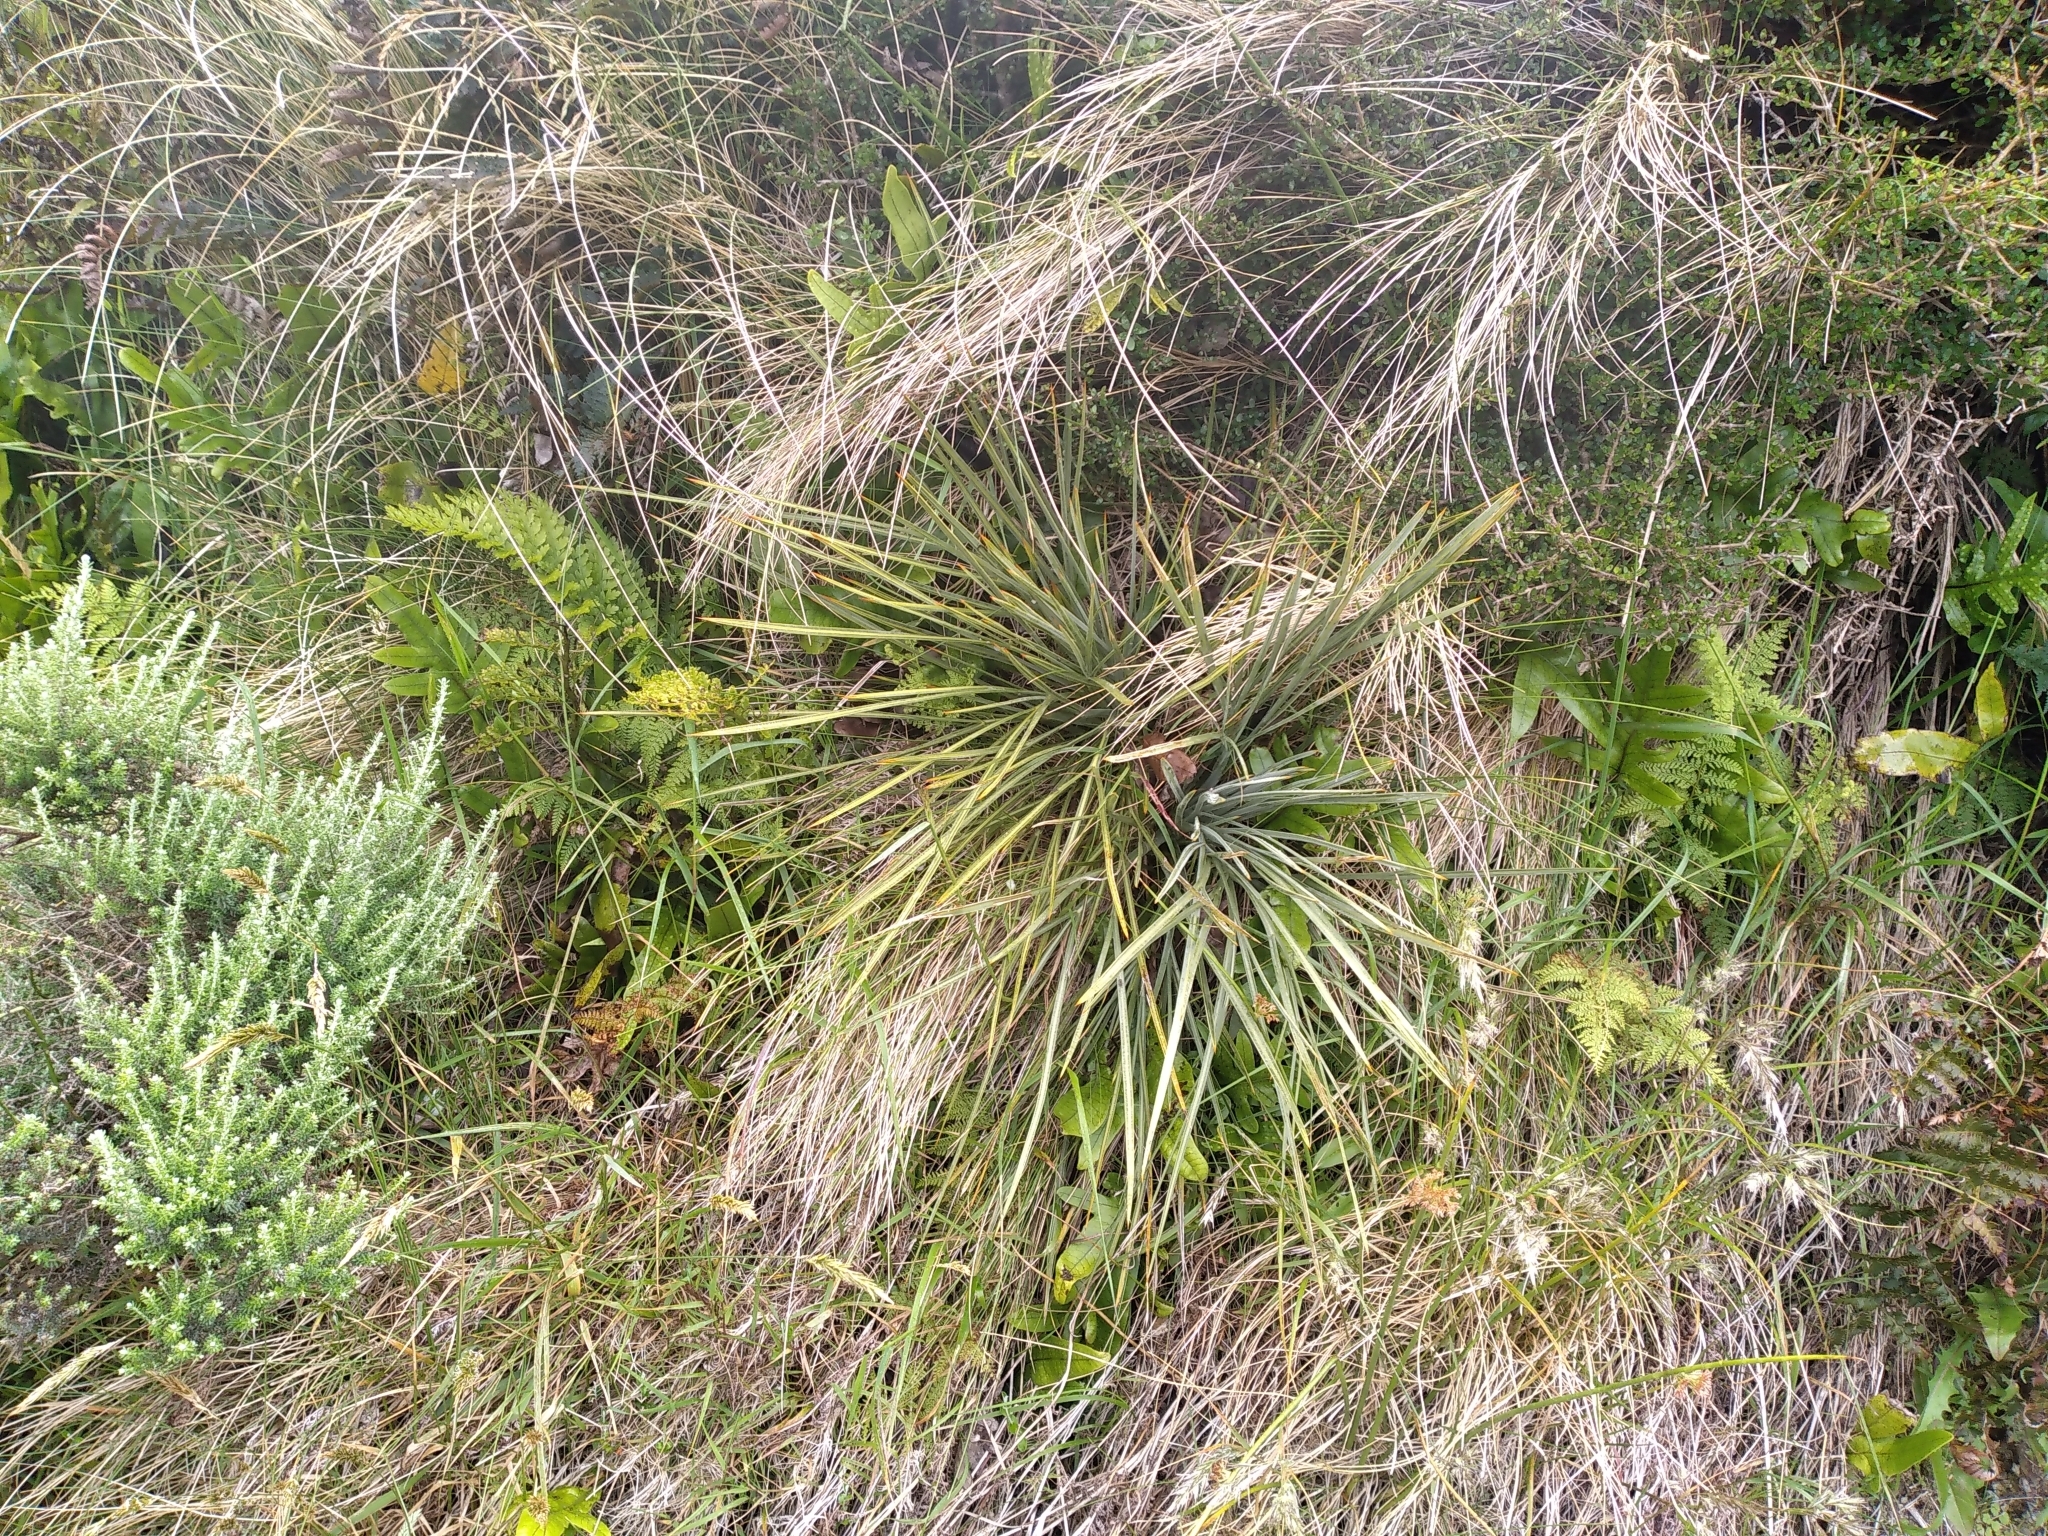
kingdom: Plantae
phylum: Tracheophyta
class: Magnoliopsida
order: Apiales
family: Apiaceae
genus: Aciphylla
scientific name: Aciphylla squarrosa
